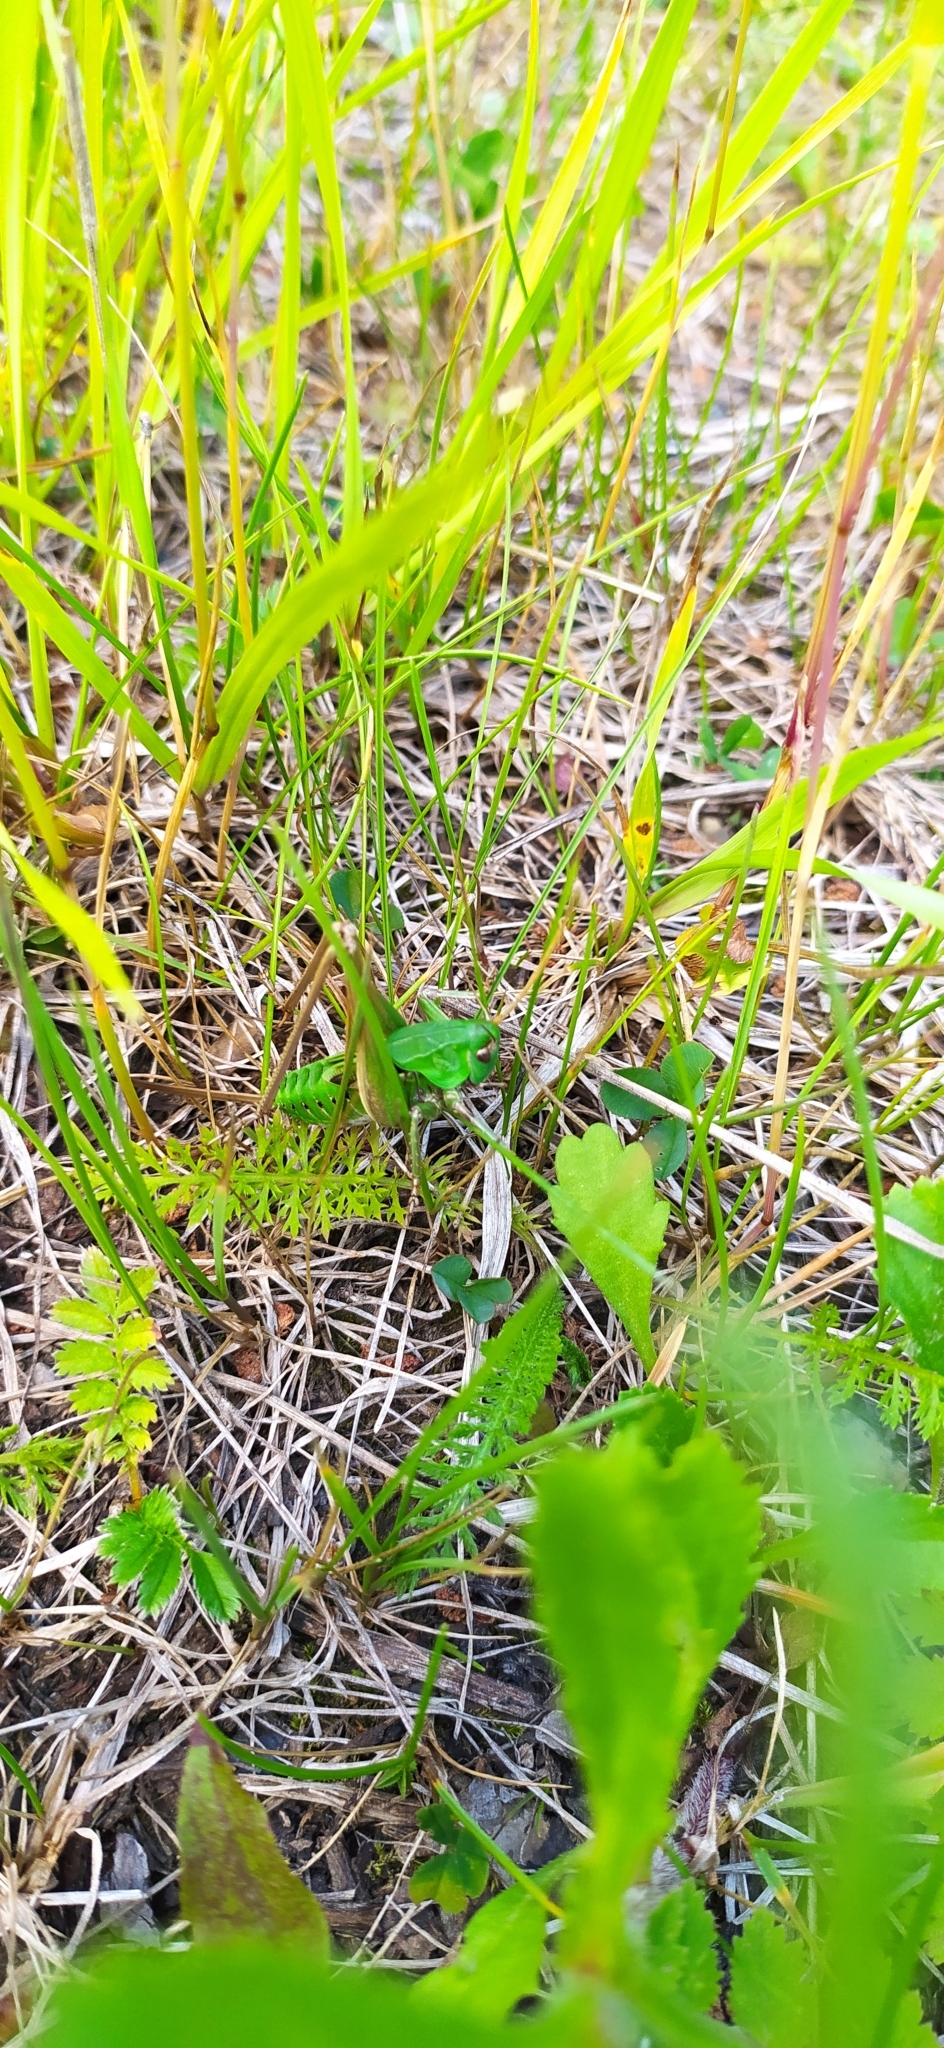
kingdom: Animalia
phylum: Arthropoda
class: Insecta
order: Orthoptera
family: Tettigoniidae
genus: Decticus
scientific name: Decticus verrucivorus
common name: Wart-biter
